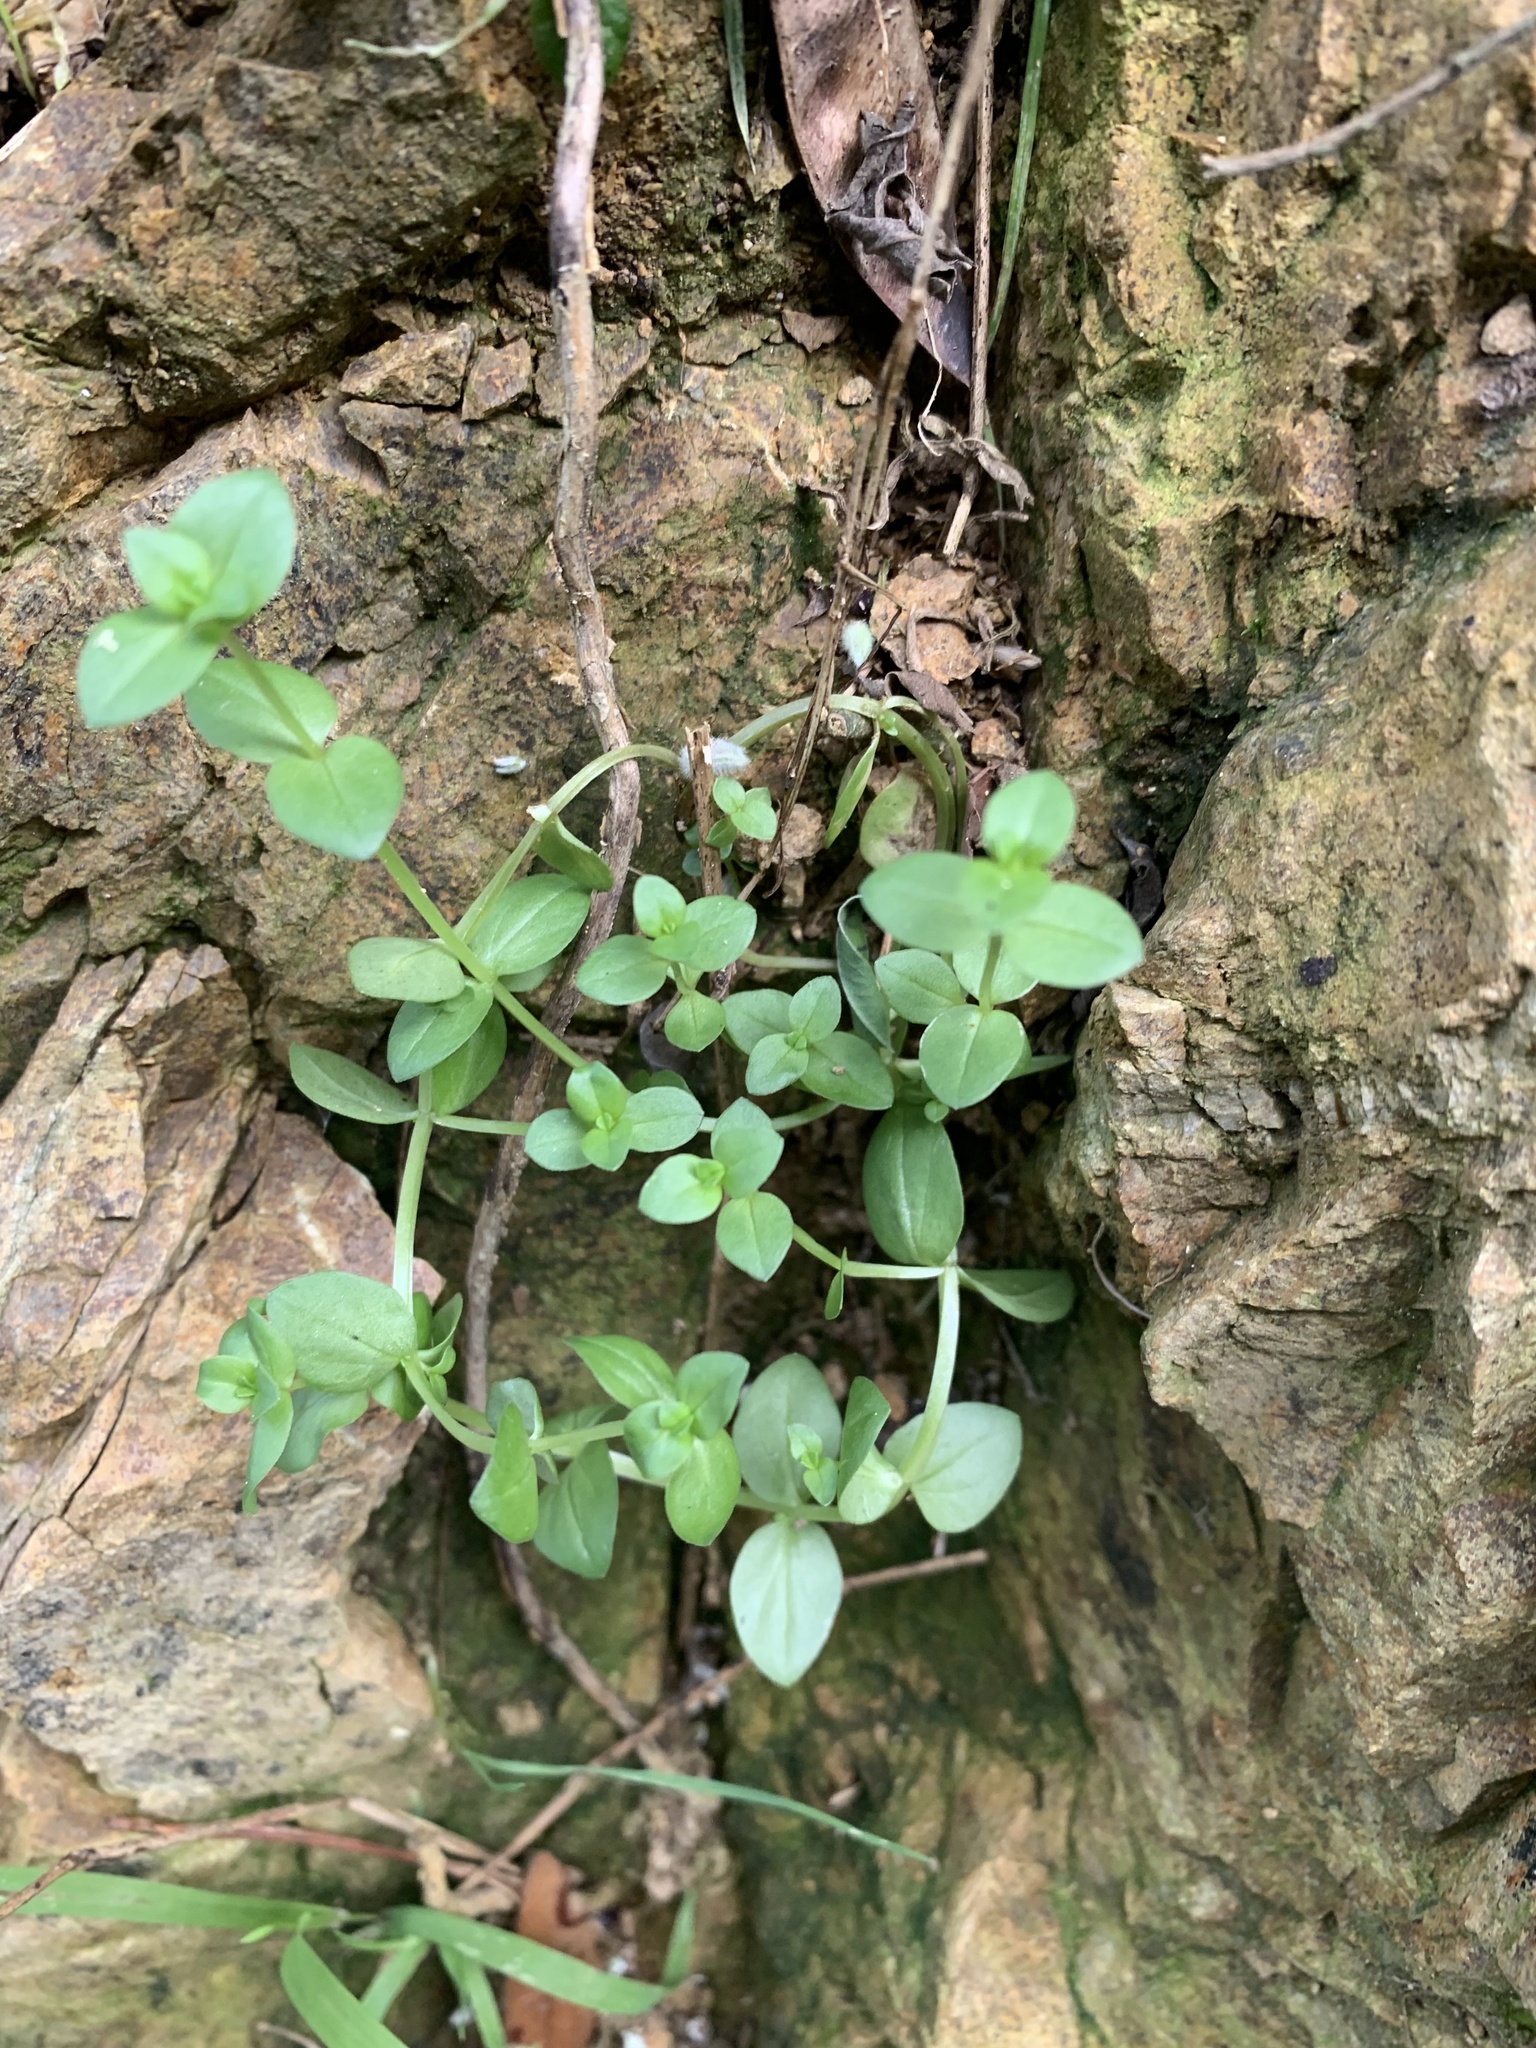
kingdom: Plantae
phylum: Tracheophyta
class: Magnoliopsida
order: Ericales
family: Primulaceae
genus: Lysimachia
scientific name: Lysimachia arvensis
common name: Scarlet pimpernel
